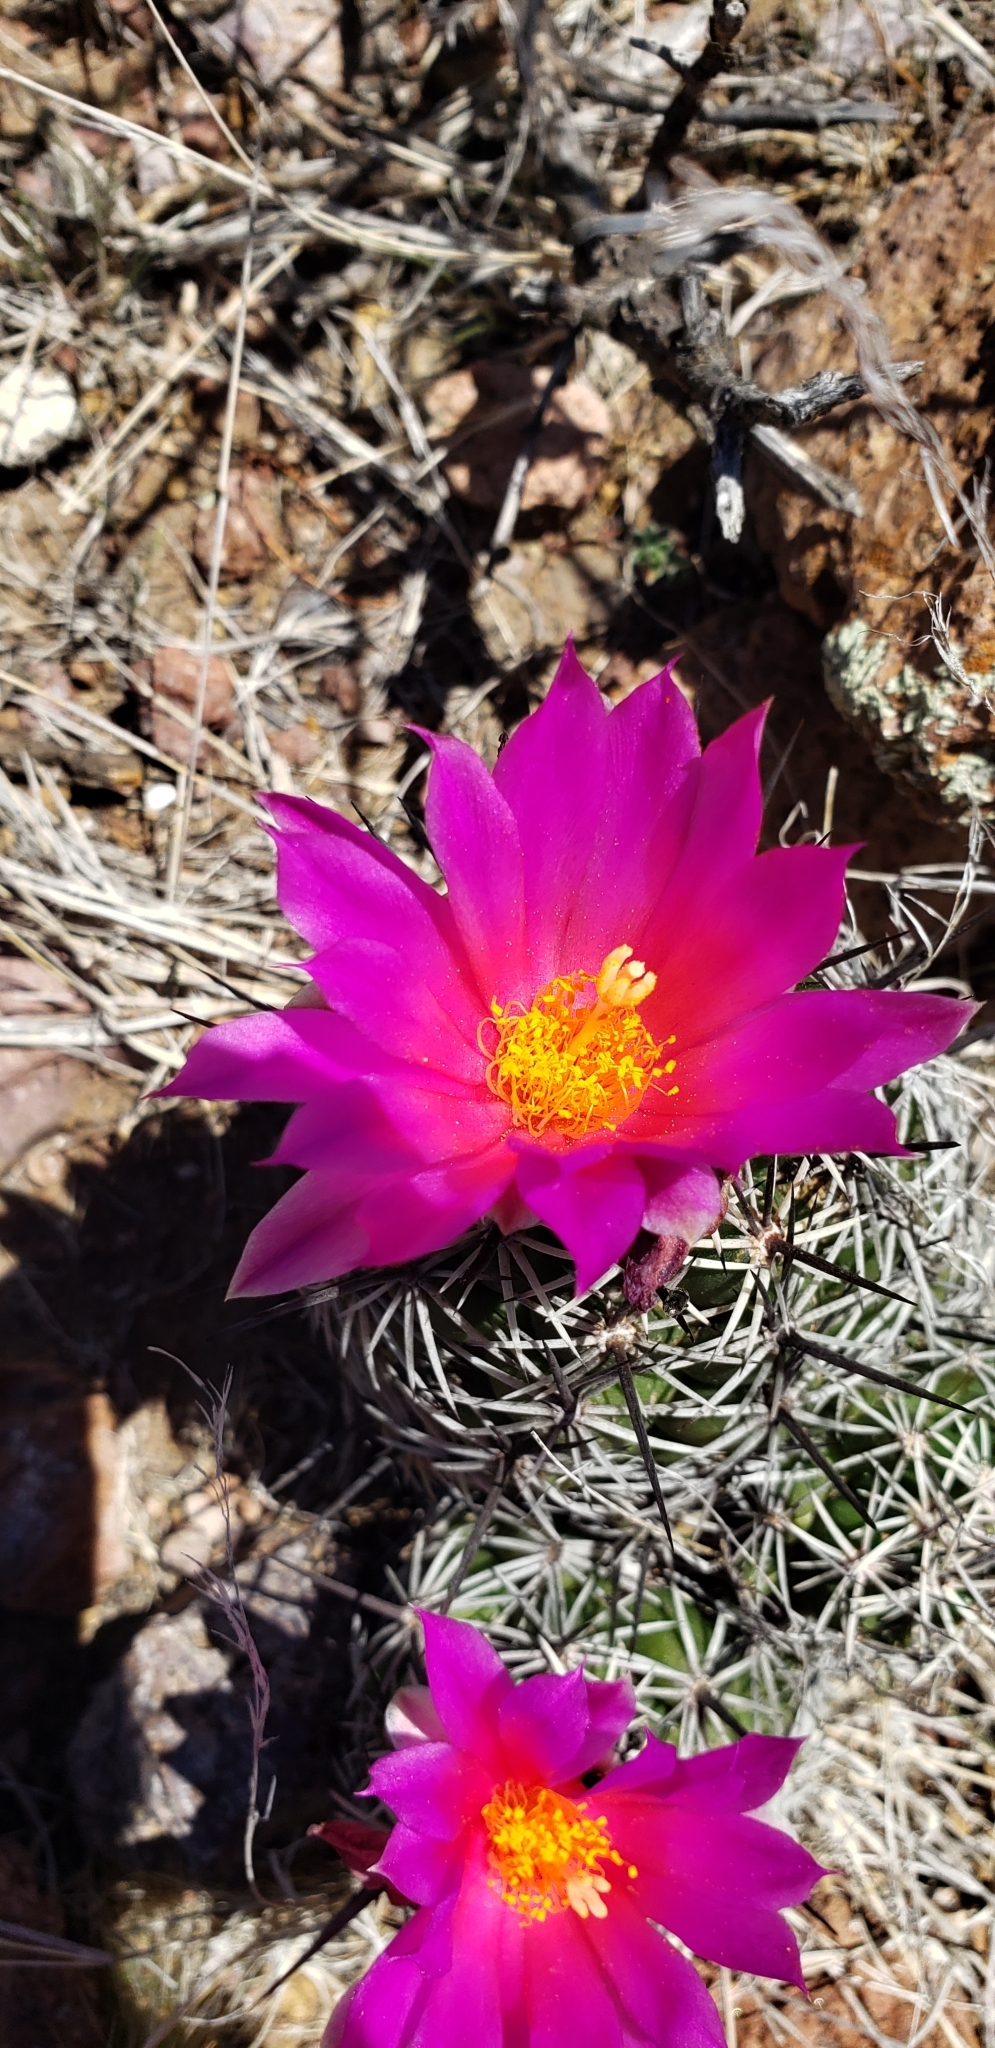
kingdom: Plantae
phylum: Tracheophyta
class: Magnoliopsida
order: Caryophyllales
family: Cactaceae
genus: Cochemiea
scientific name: Cochemiea conoidea
